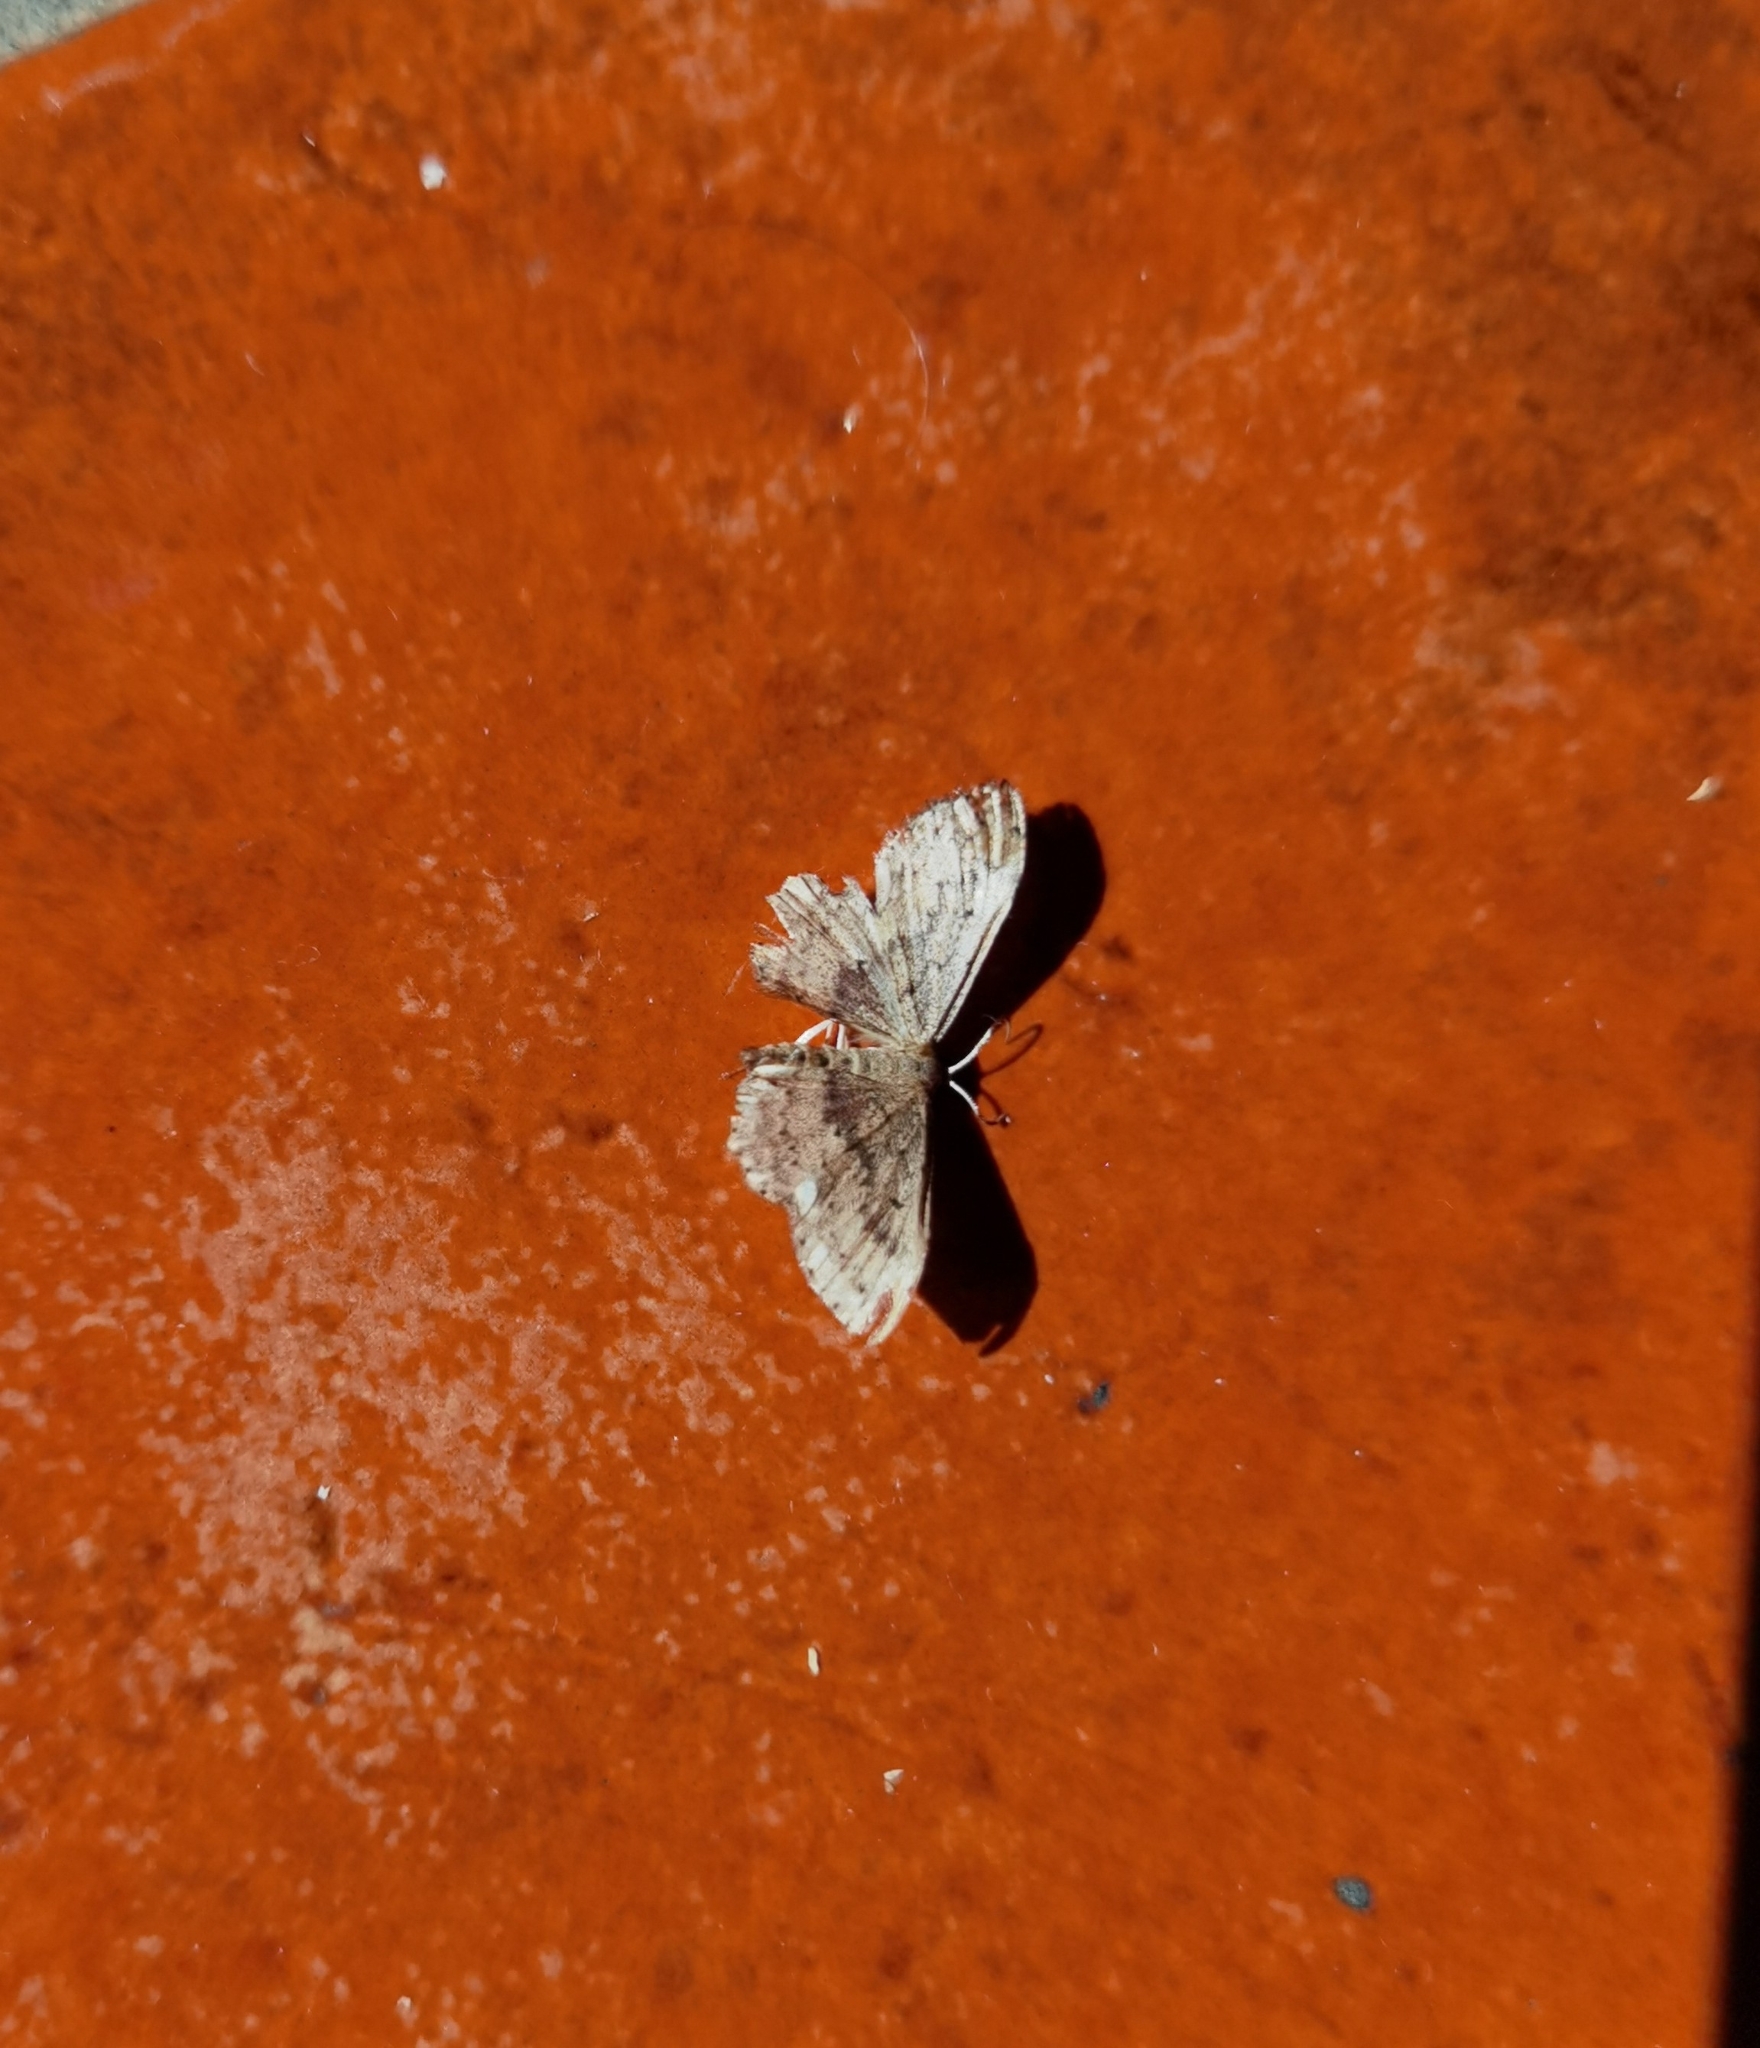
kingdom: Animalia
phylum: Arthropoda
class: Insecta
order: Lepidoptera
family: Geometridae
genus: Scopula
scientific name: Scopula guancharia
